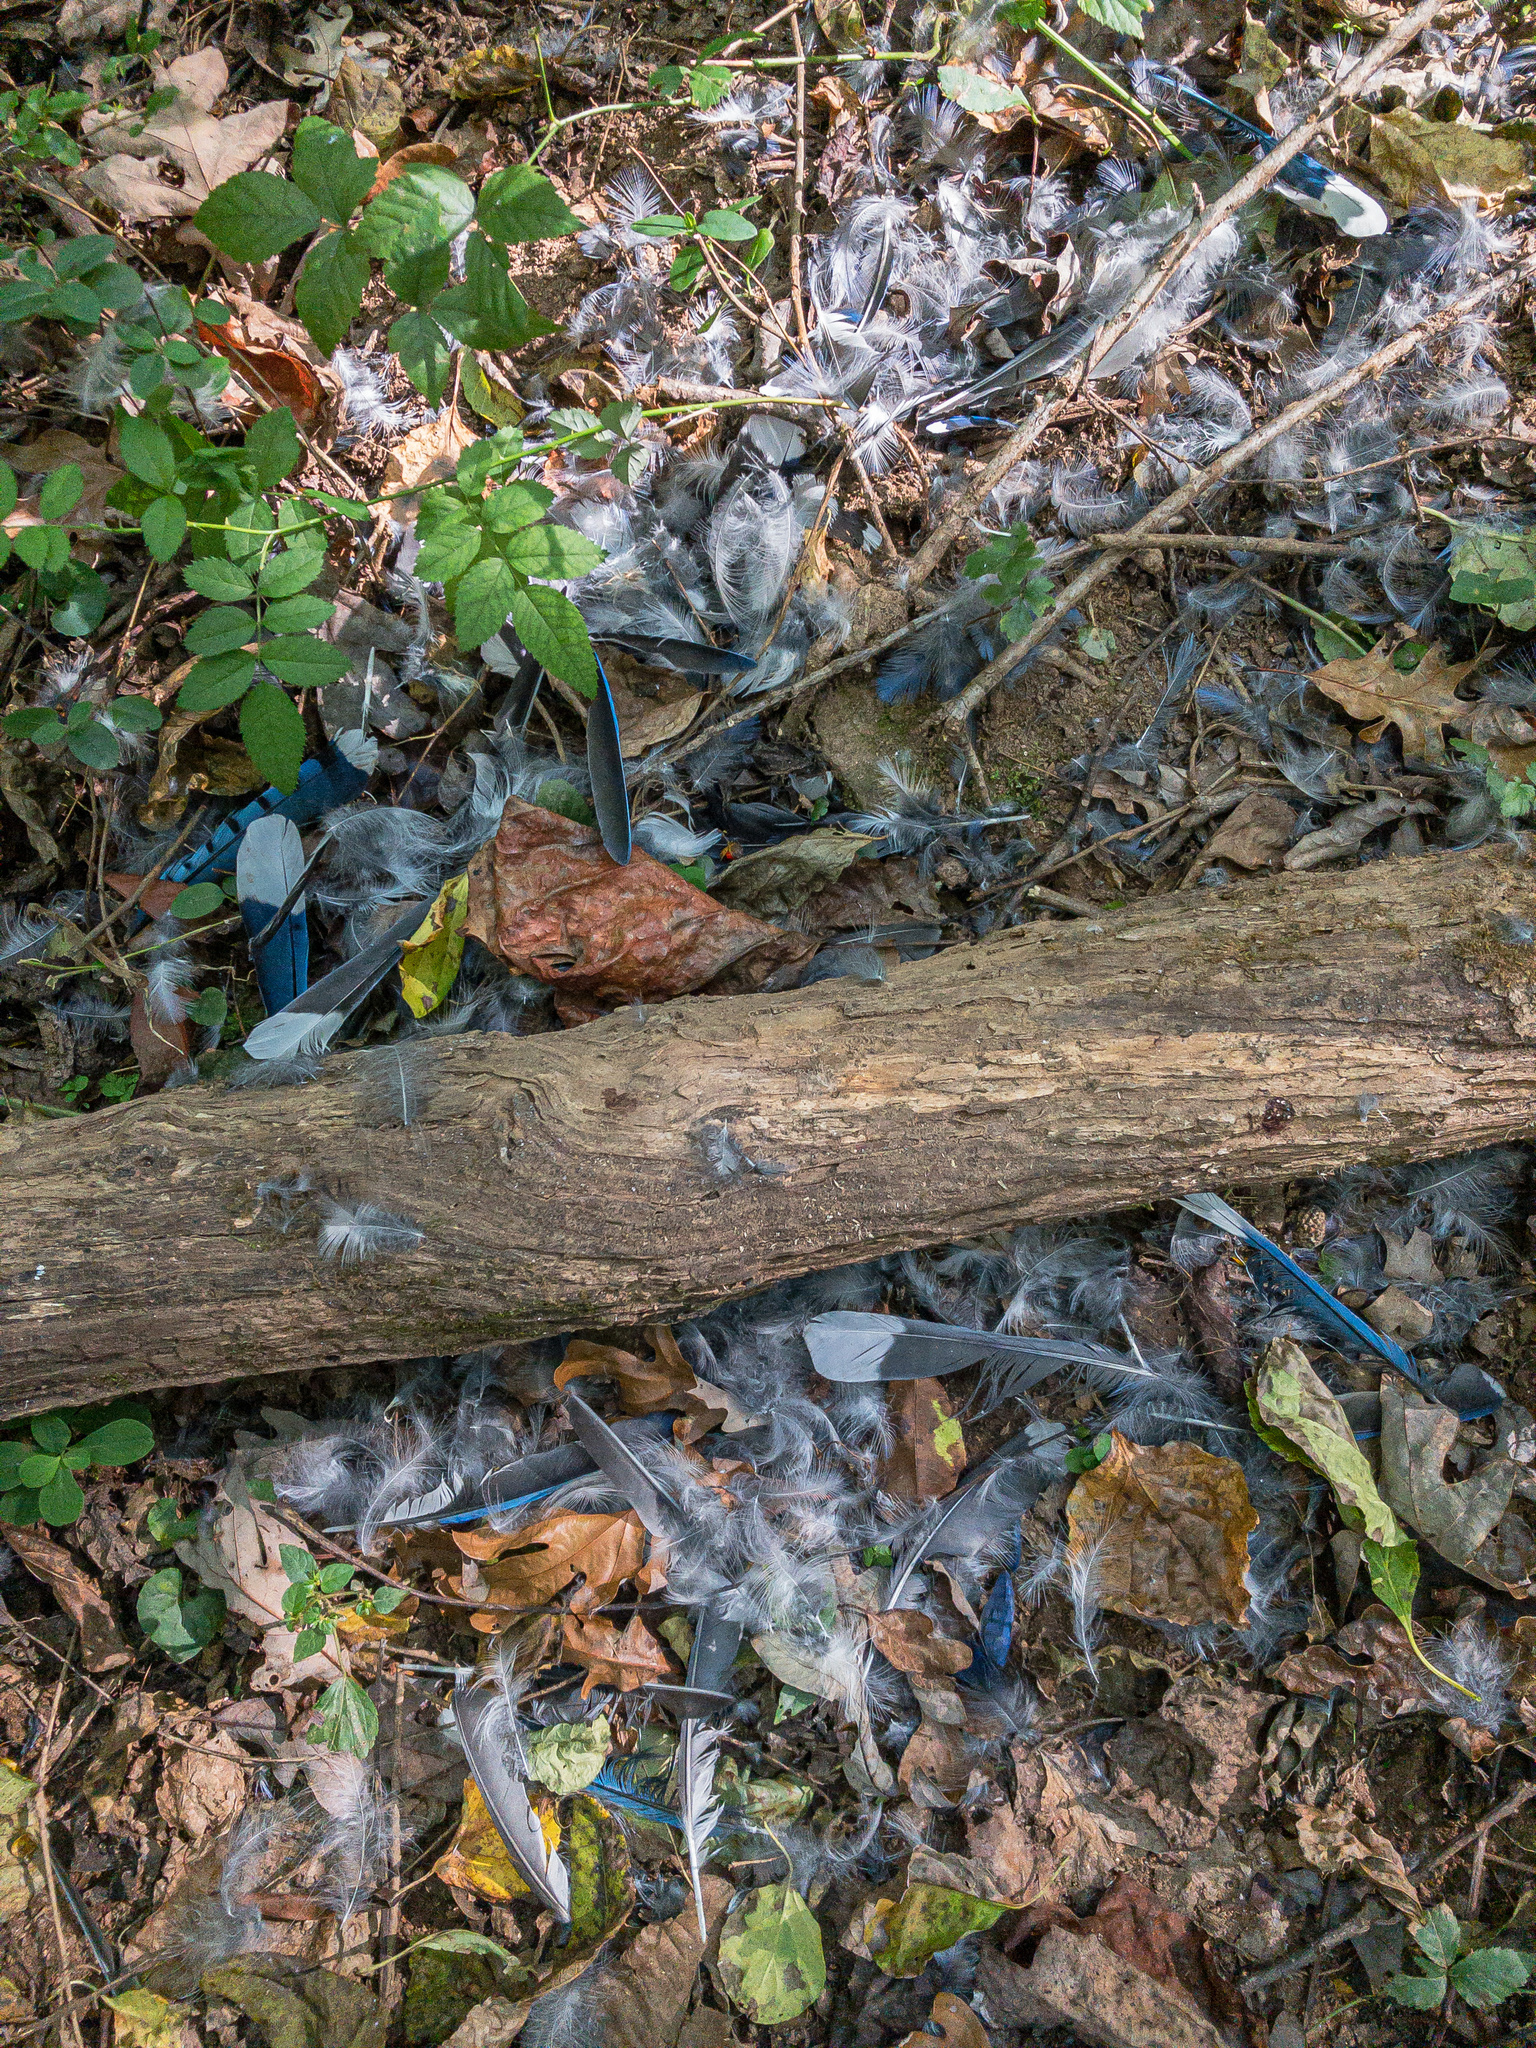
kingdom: Animalia
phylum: Chordata
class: Aves
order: Passeriformes
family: Corvidae
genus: Cyanocitta
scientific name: Cyanocitta cristata
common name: Blue jay
